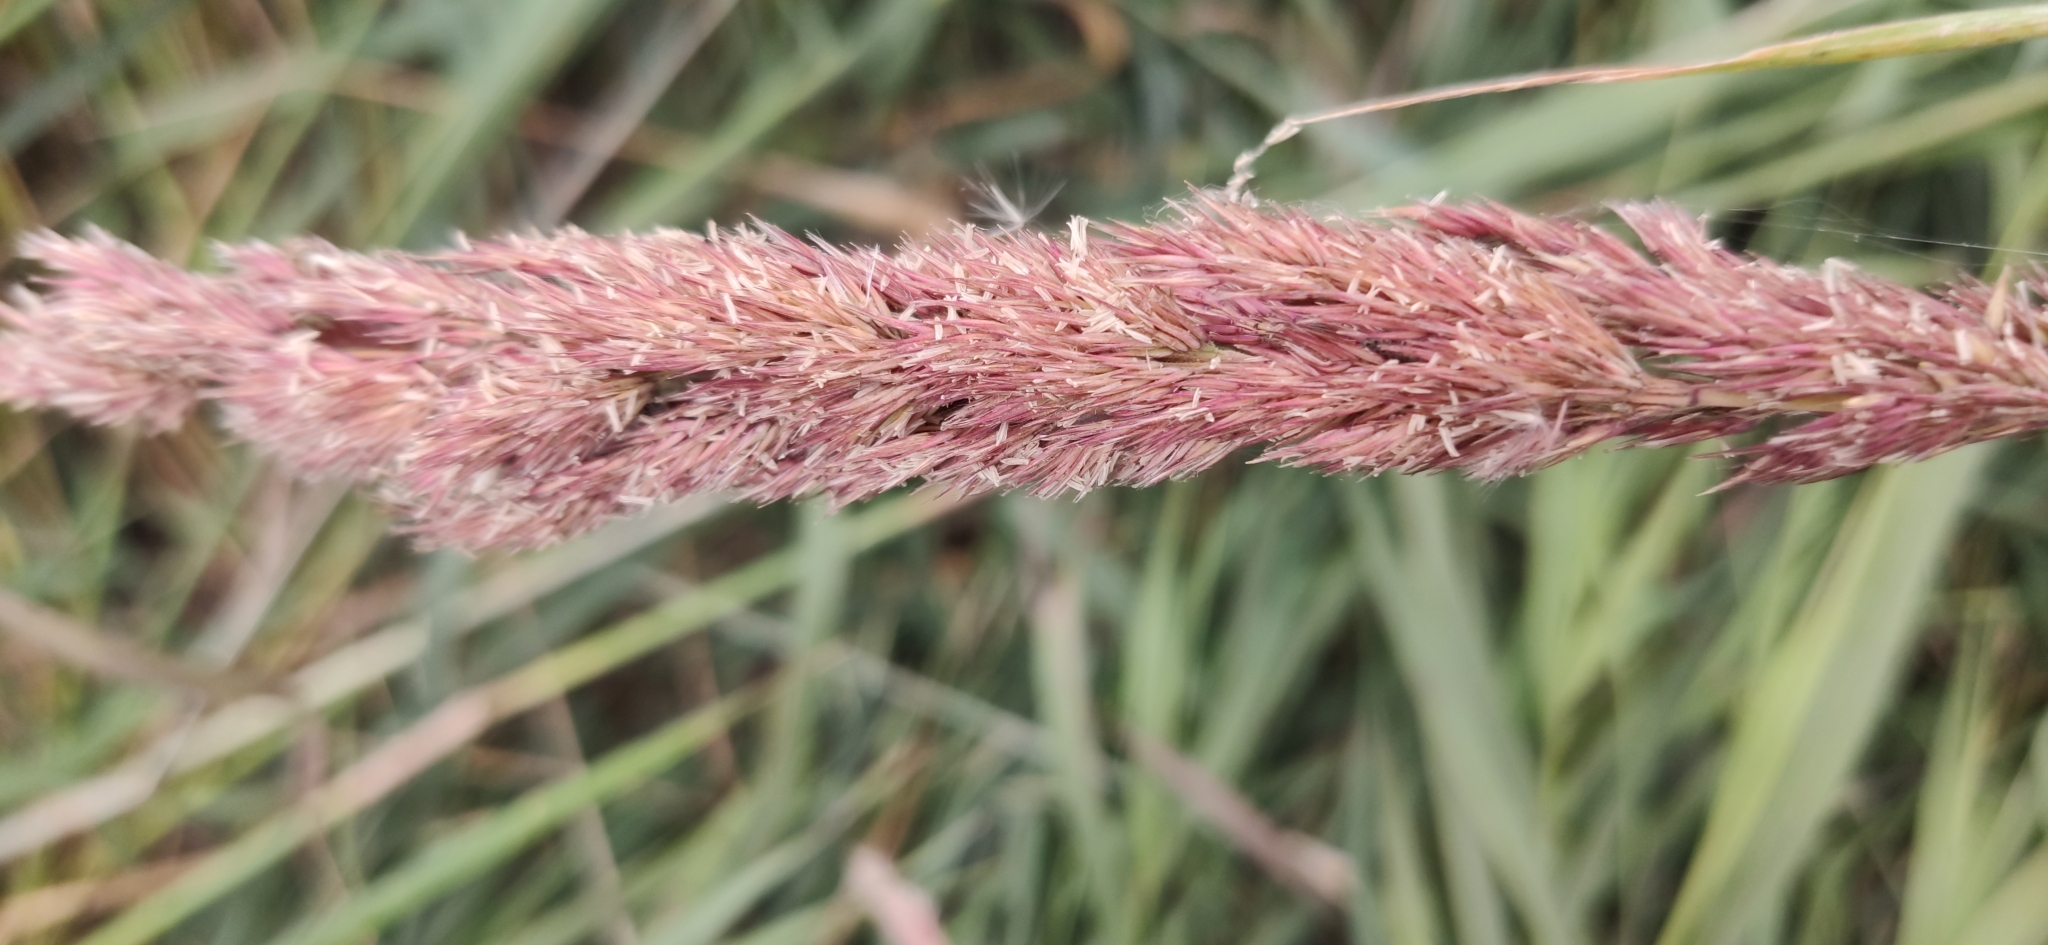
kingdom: Plantae
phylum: Tracheophyta
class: Liliopsida
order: Poales
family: Poaceae
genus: Calamagrostis
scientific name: Calamagrostis epigejos
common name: Wood small-reed
